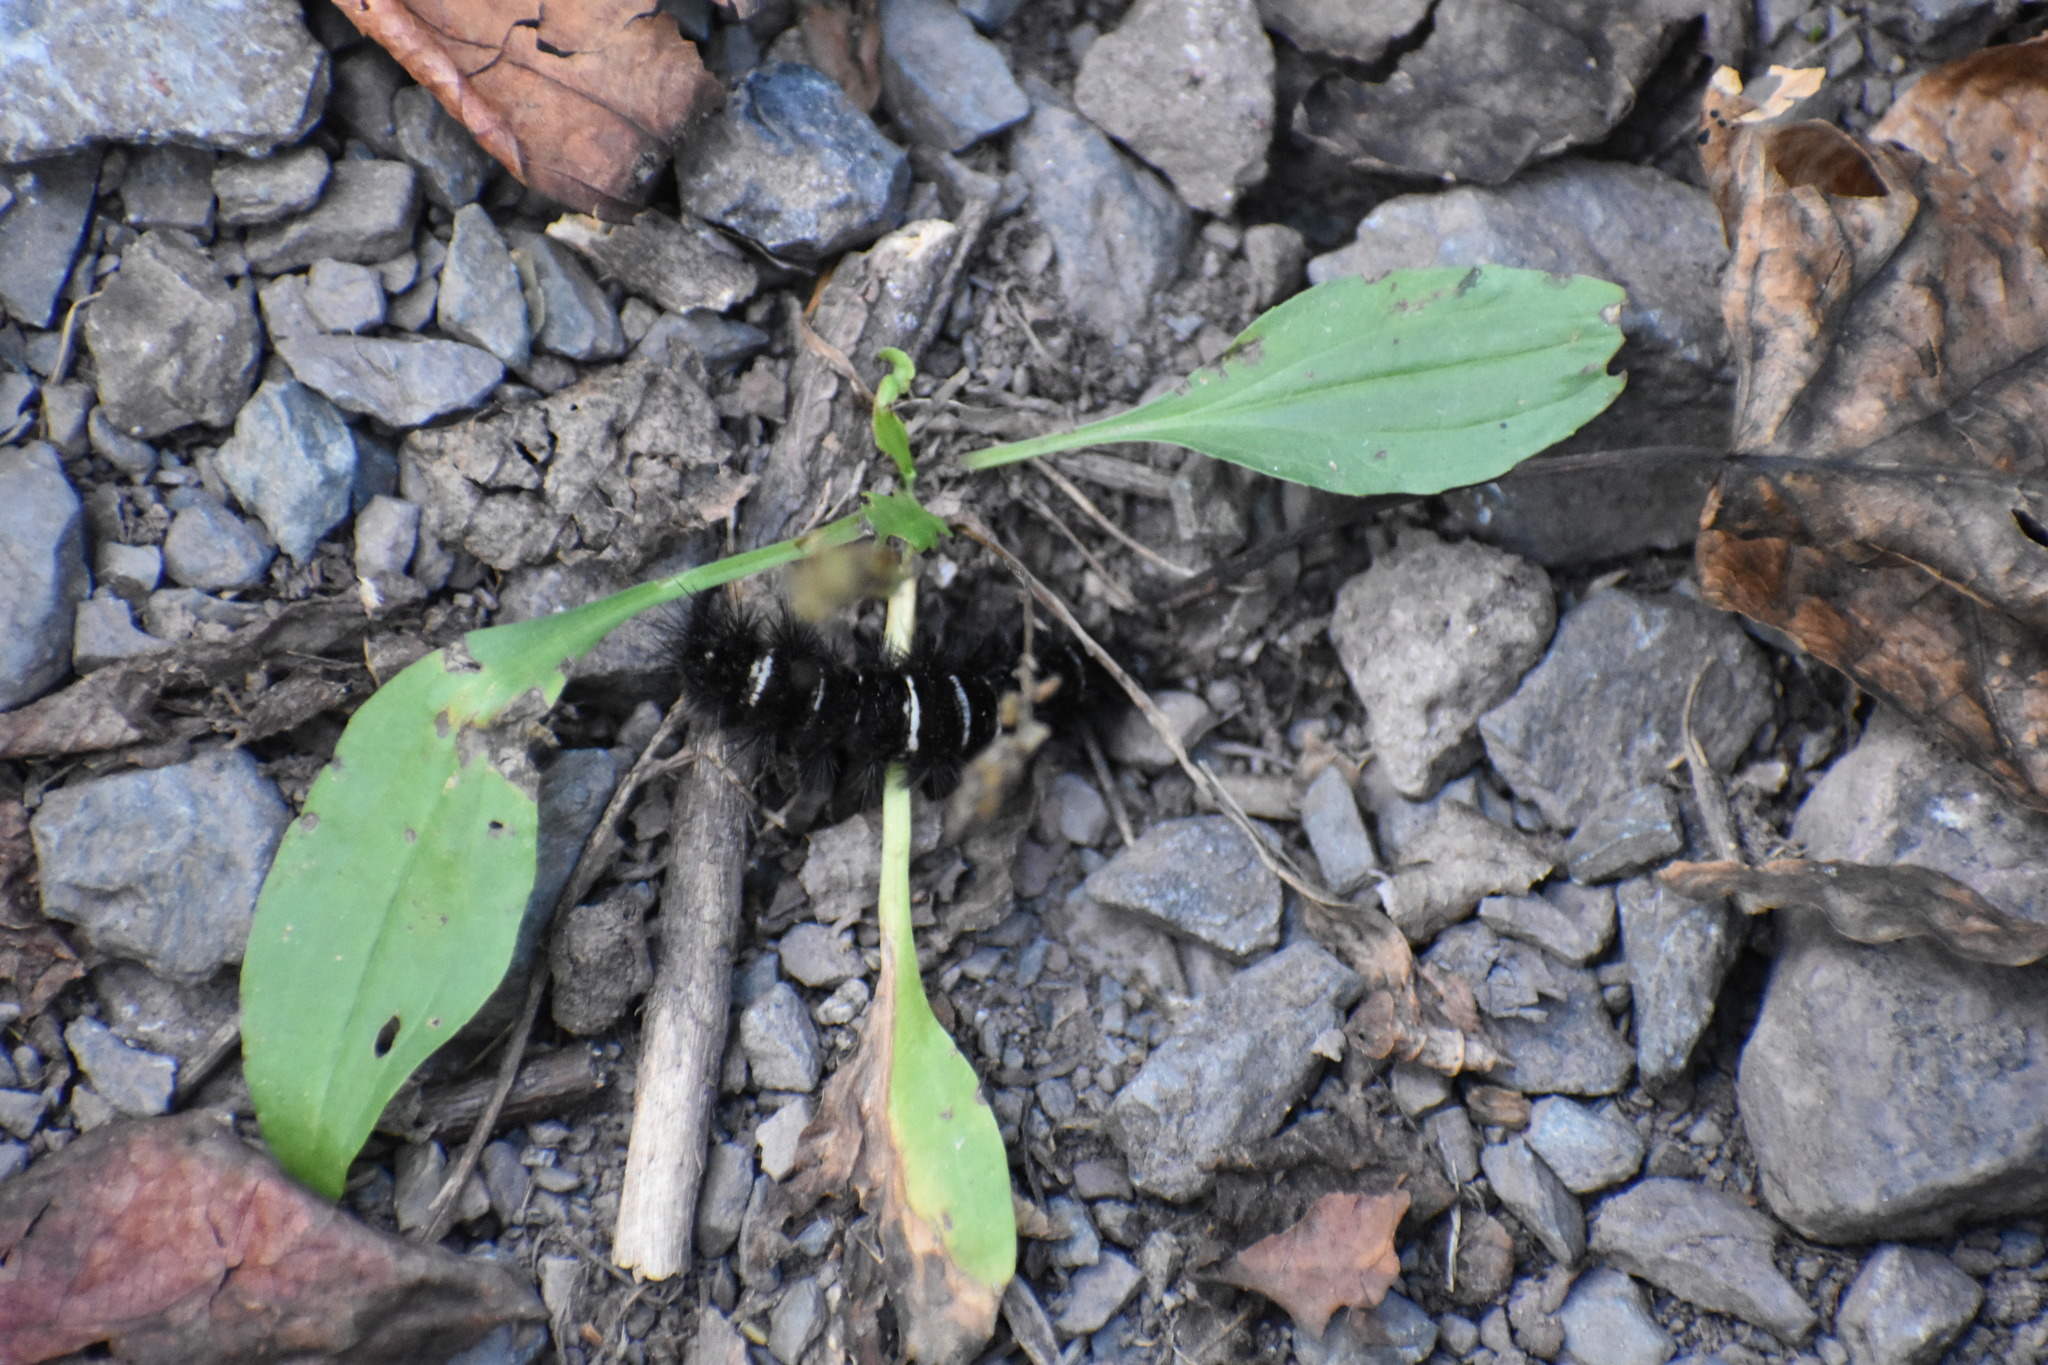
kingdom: Animalia
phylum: Arthropoda
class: Insecta
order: Lepidoptera
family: Erebidae
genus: Hypercompe
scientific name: Hypercompe scribonia
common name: Giant leopard moth
